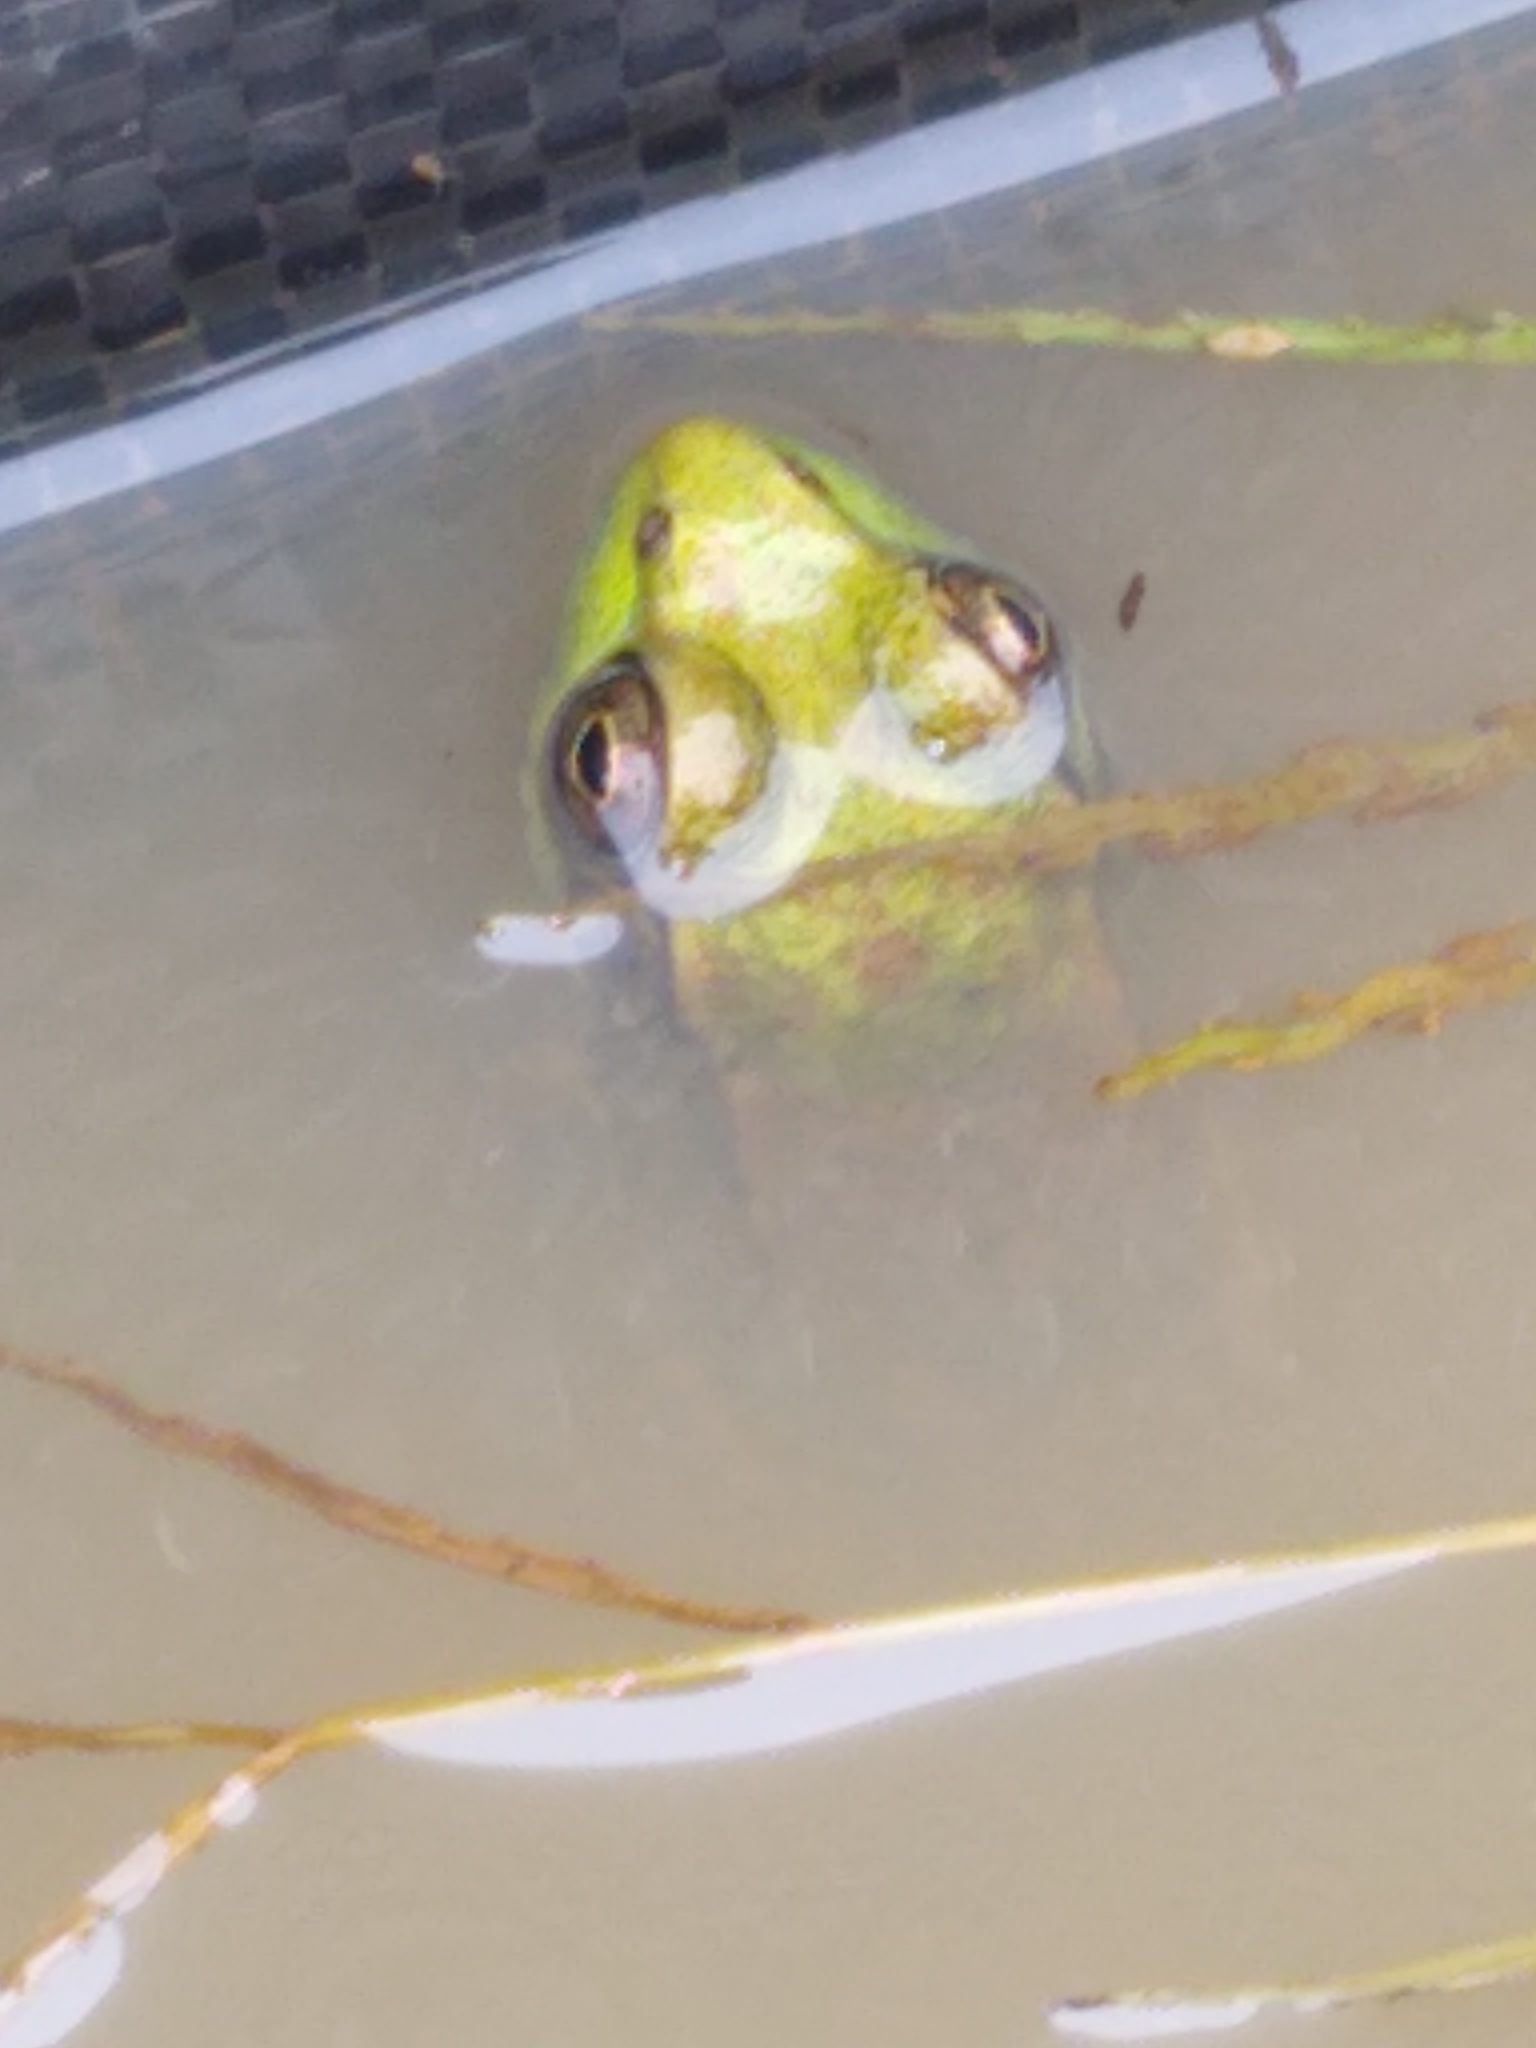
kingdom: Animalia
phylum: Chordata
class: Amphibia
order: Anura
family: Ranidae
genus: Lithobates
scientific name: Lithobates clamitans
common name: Green frog
